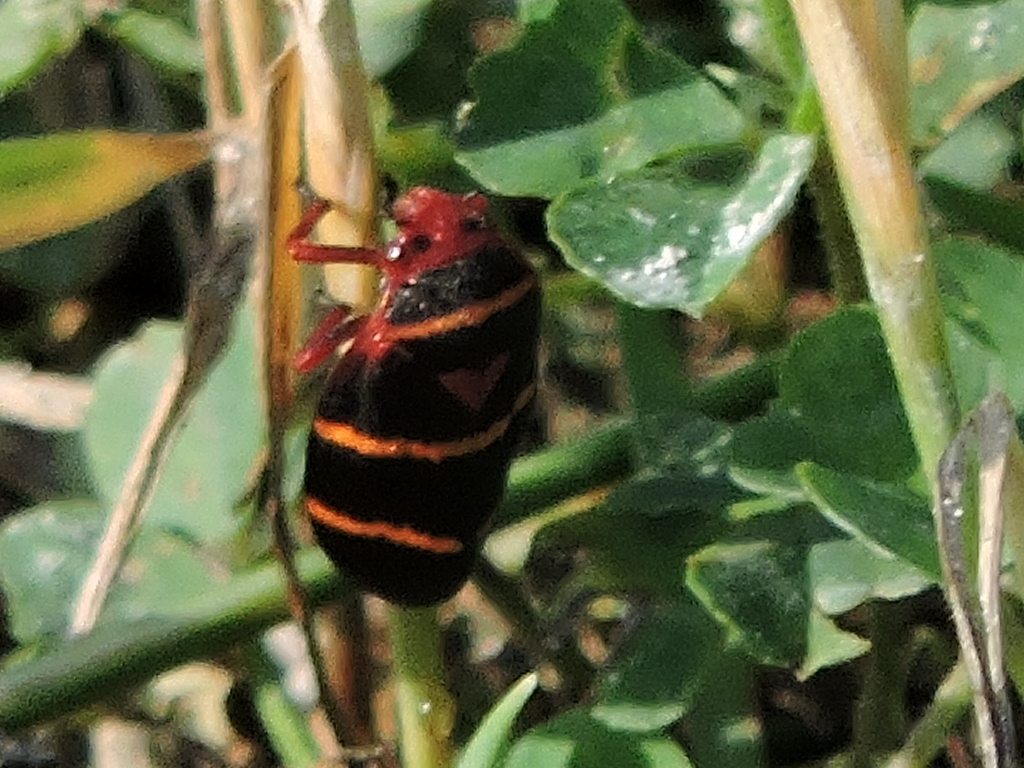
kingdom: Animalia
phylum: Arthropoda
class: Insecta
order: Hemiptera
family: Cercopidae
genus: Prosapia
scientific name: Prosapia bicincta
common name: Twolined spittlebug
